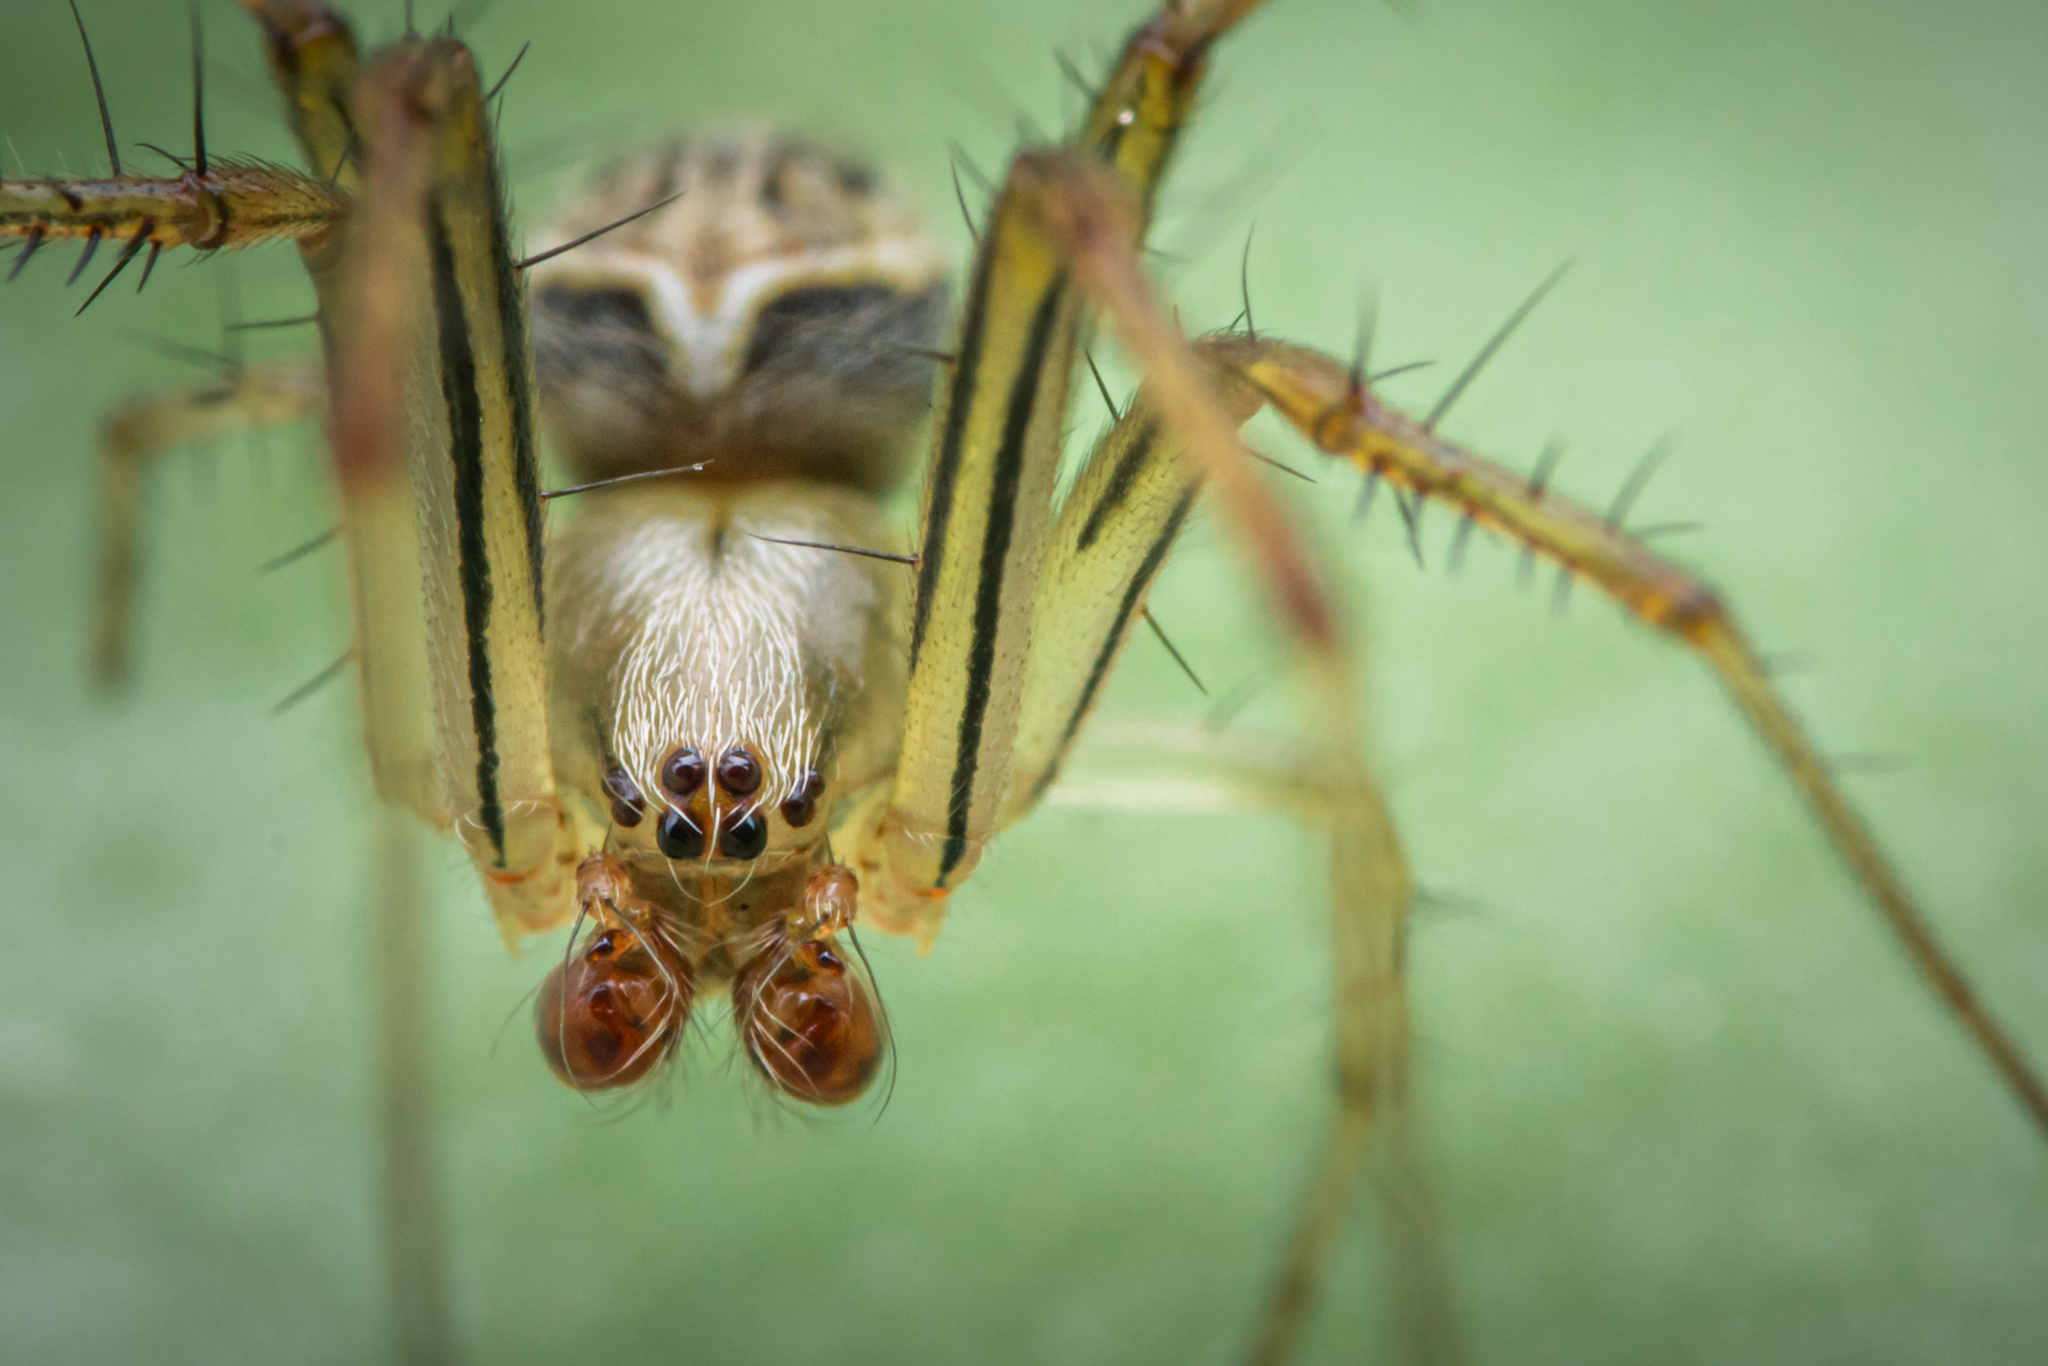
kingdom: Animalia
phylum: Arthropoda
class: Arachnida
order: Araneae
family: Araneidae
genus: Neoscona
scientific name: Neoscona molemensis
